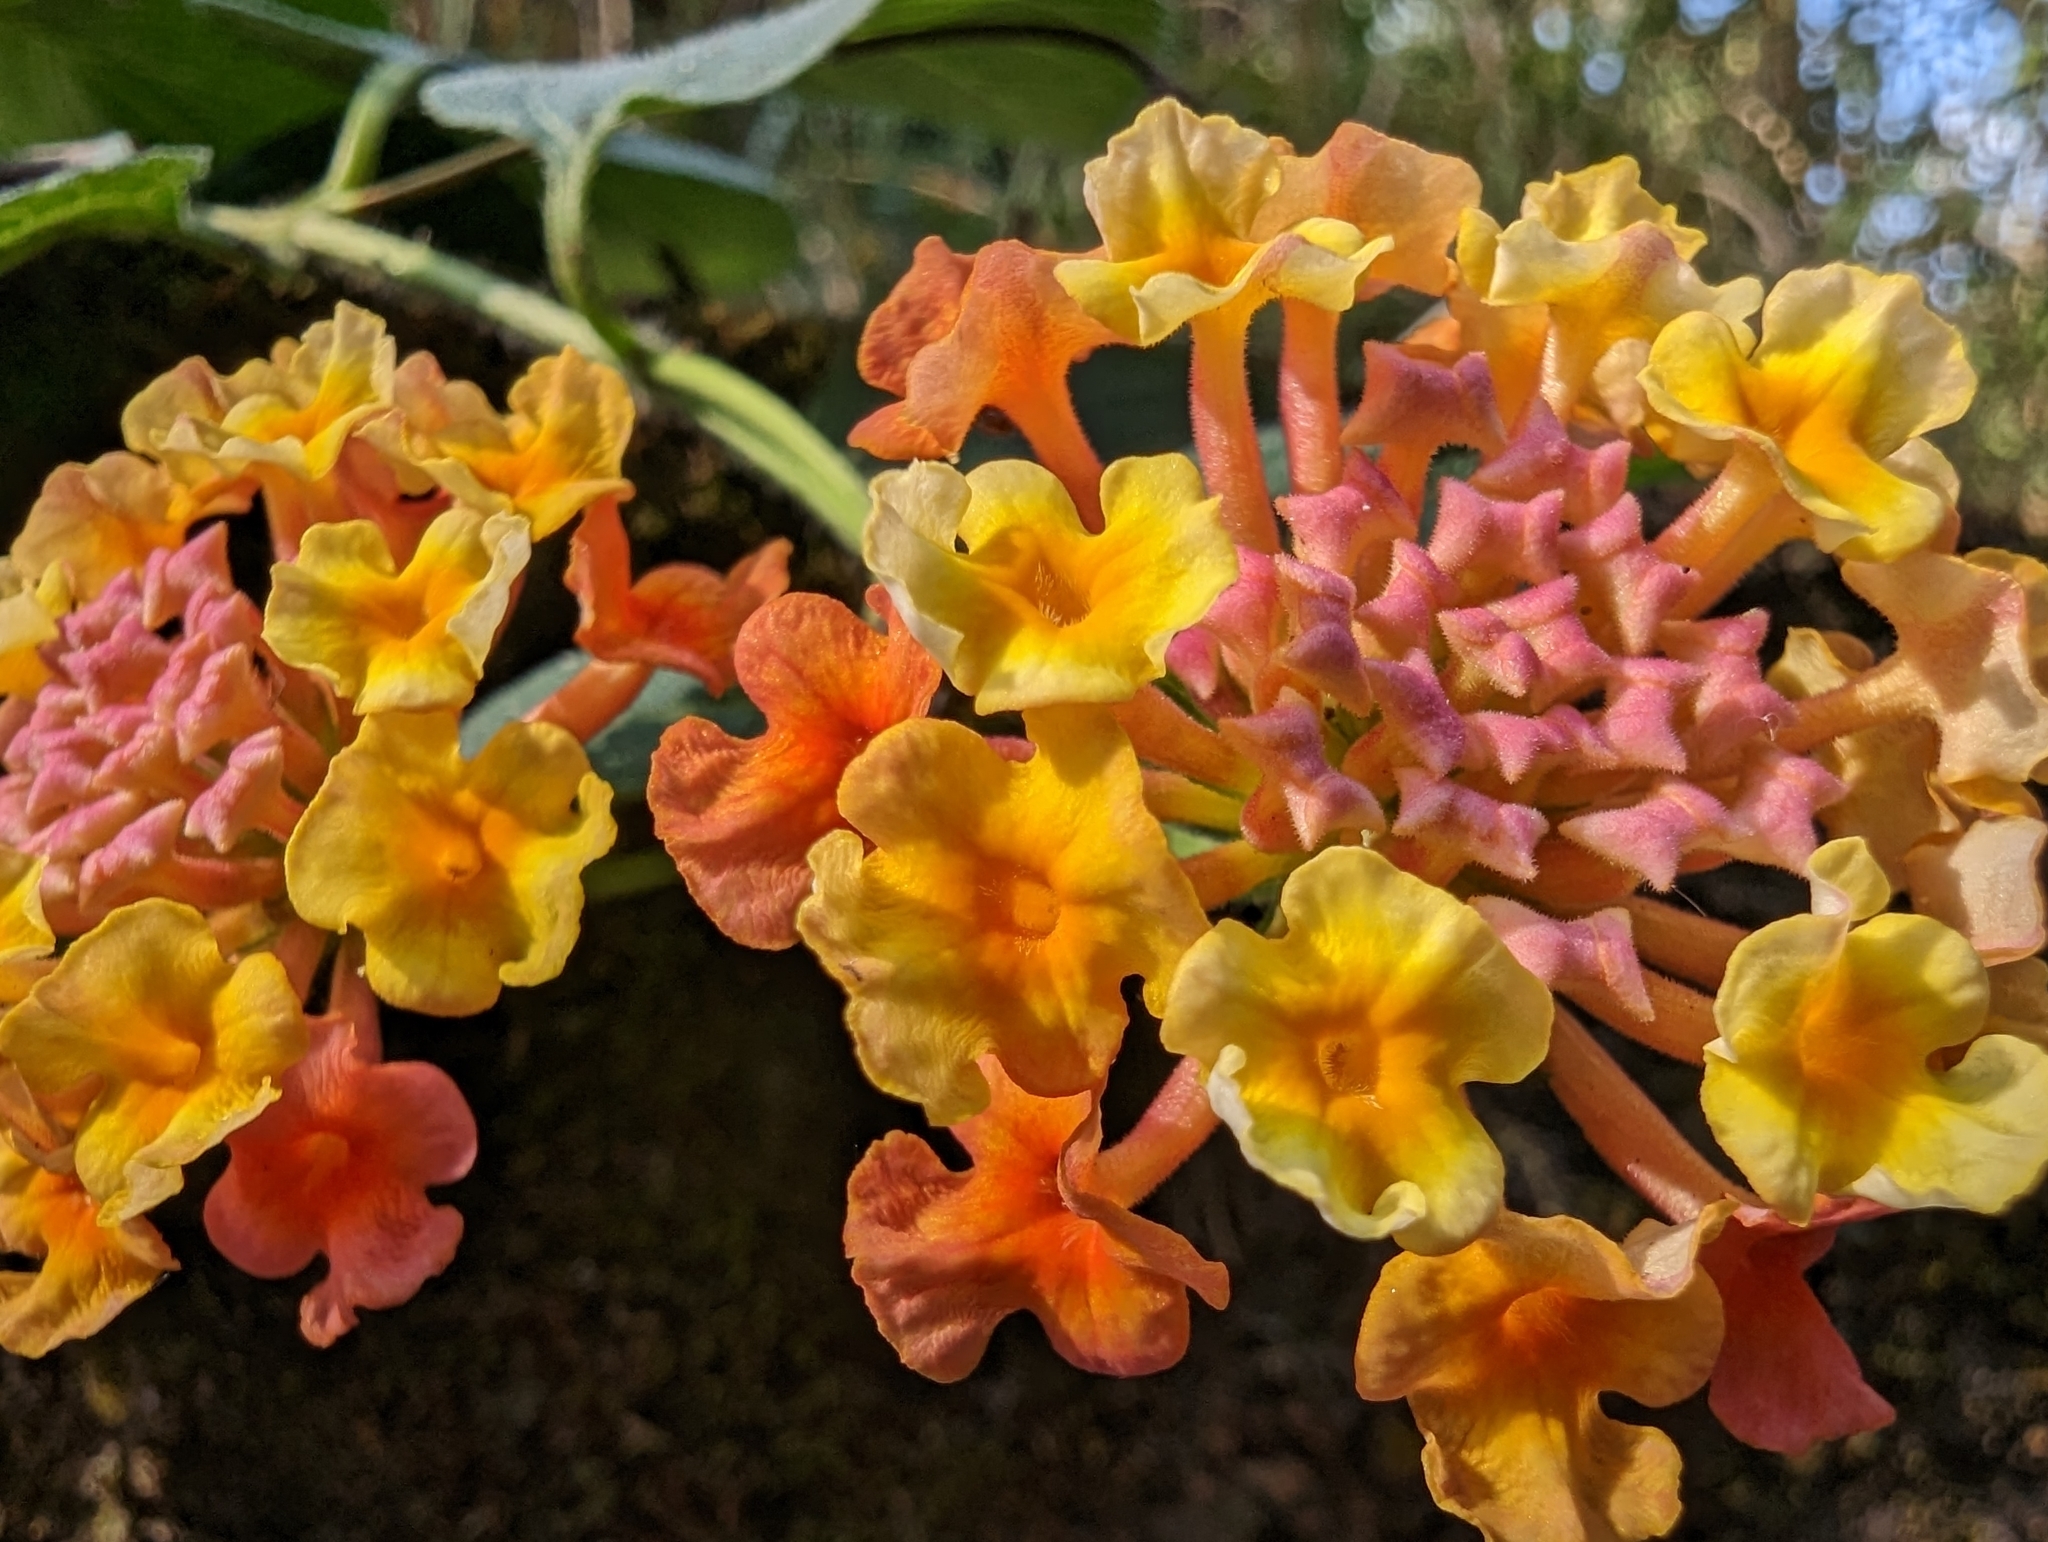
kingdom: Plantae
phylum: Tracheophyta
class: Magnoliopsida
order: Lamiales
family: Verbenaceae
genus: Lantana
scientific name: Lantana camara
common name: Lantana
